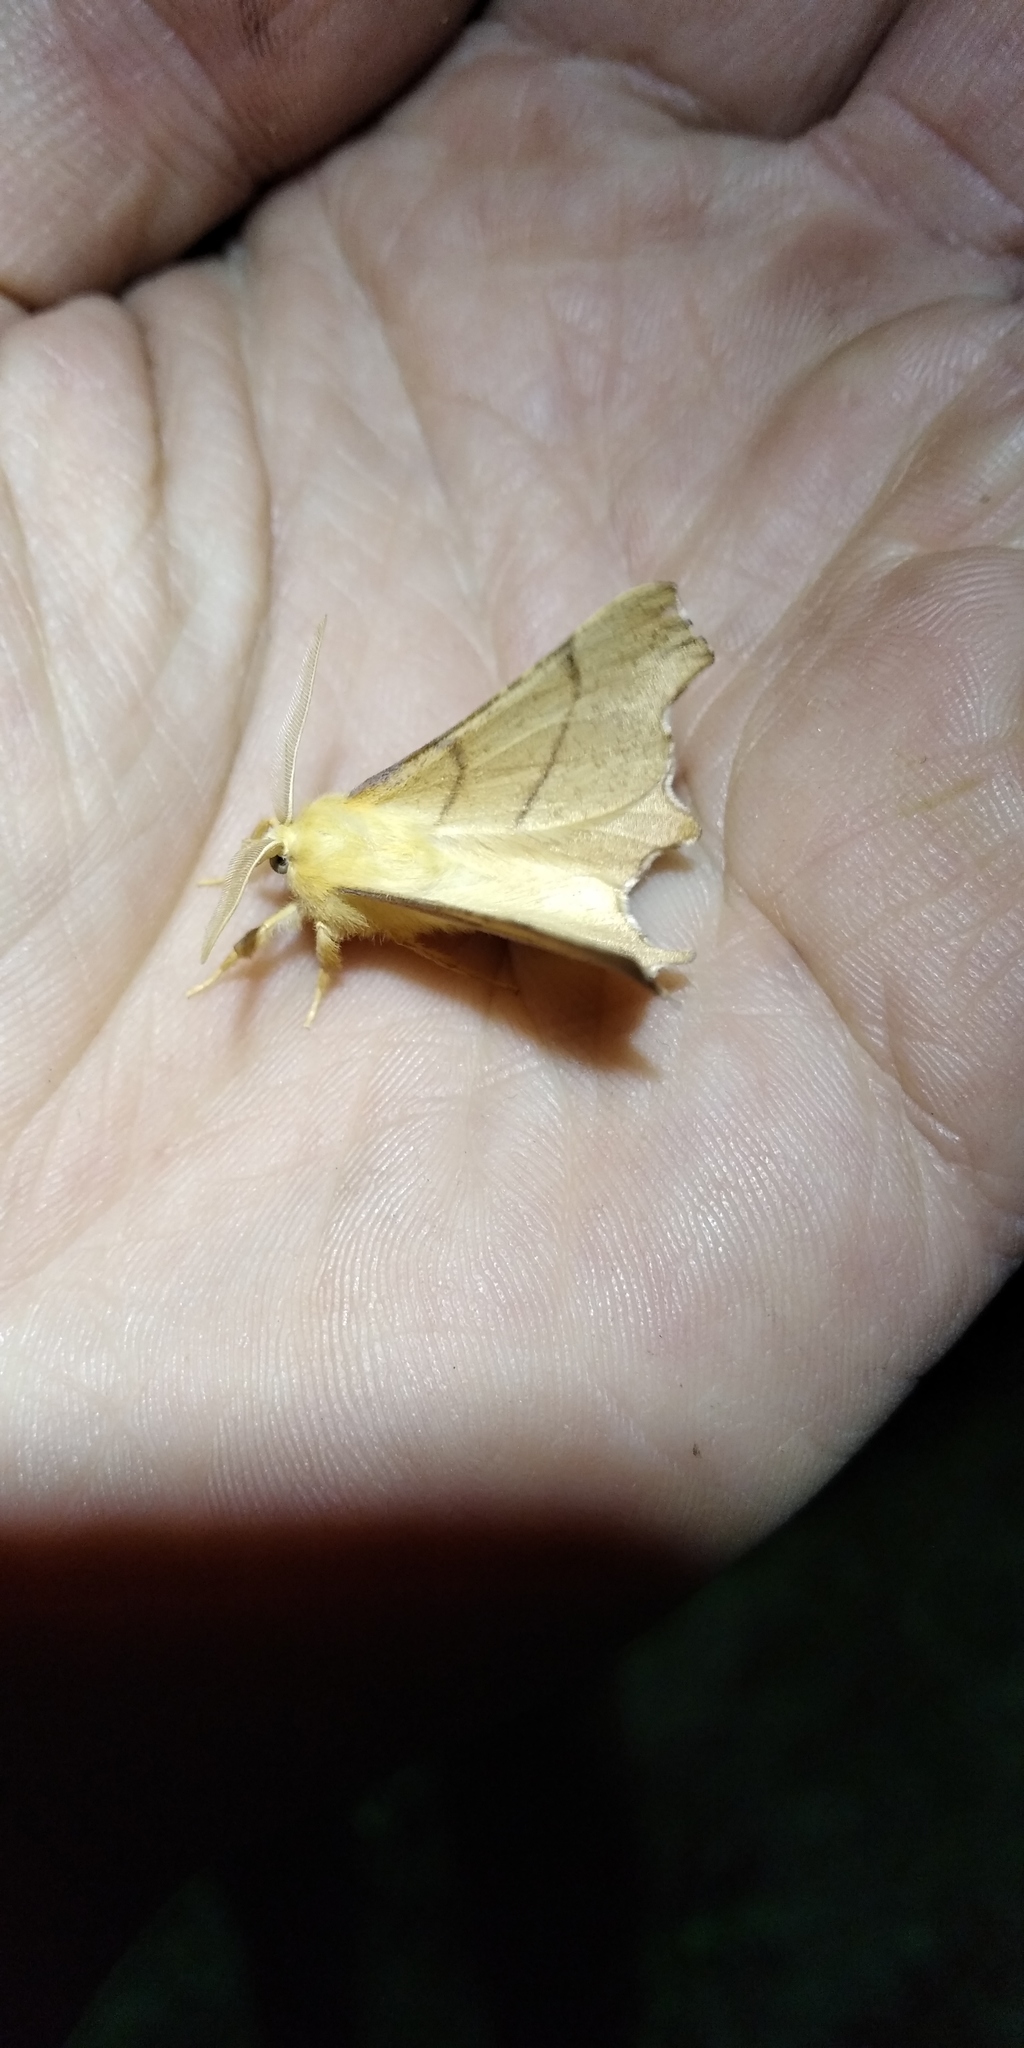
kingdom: Animalia
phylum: Arthropoda
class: Insecta
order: Lepidoptera
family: Geometridae
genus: Ennomos
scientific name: Ennomos erosaria
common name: September thorn
